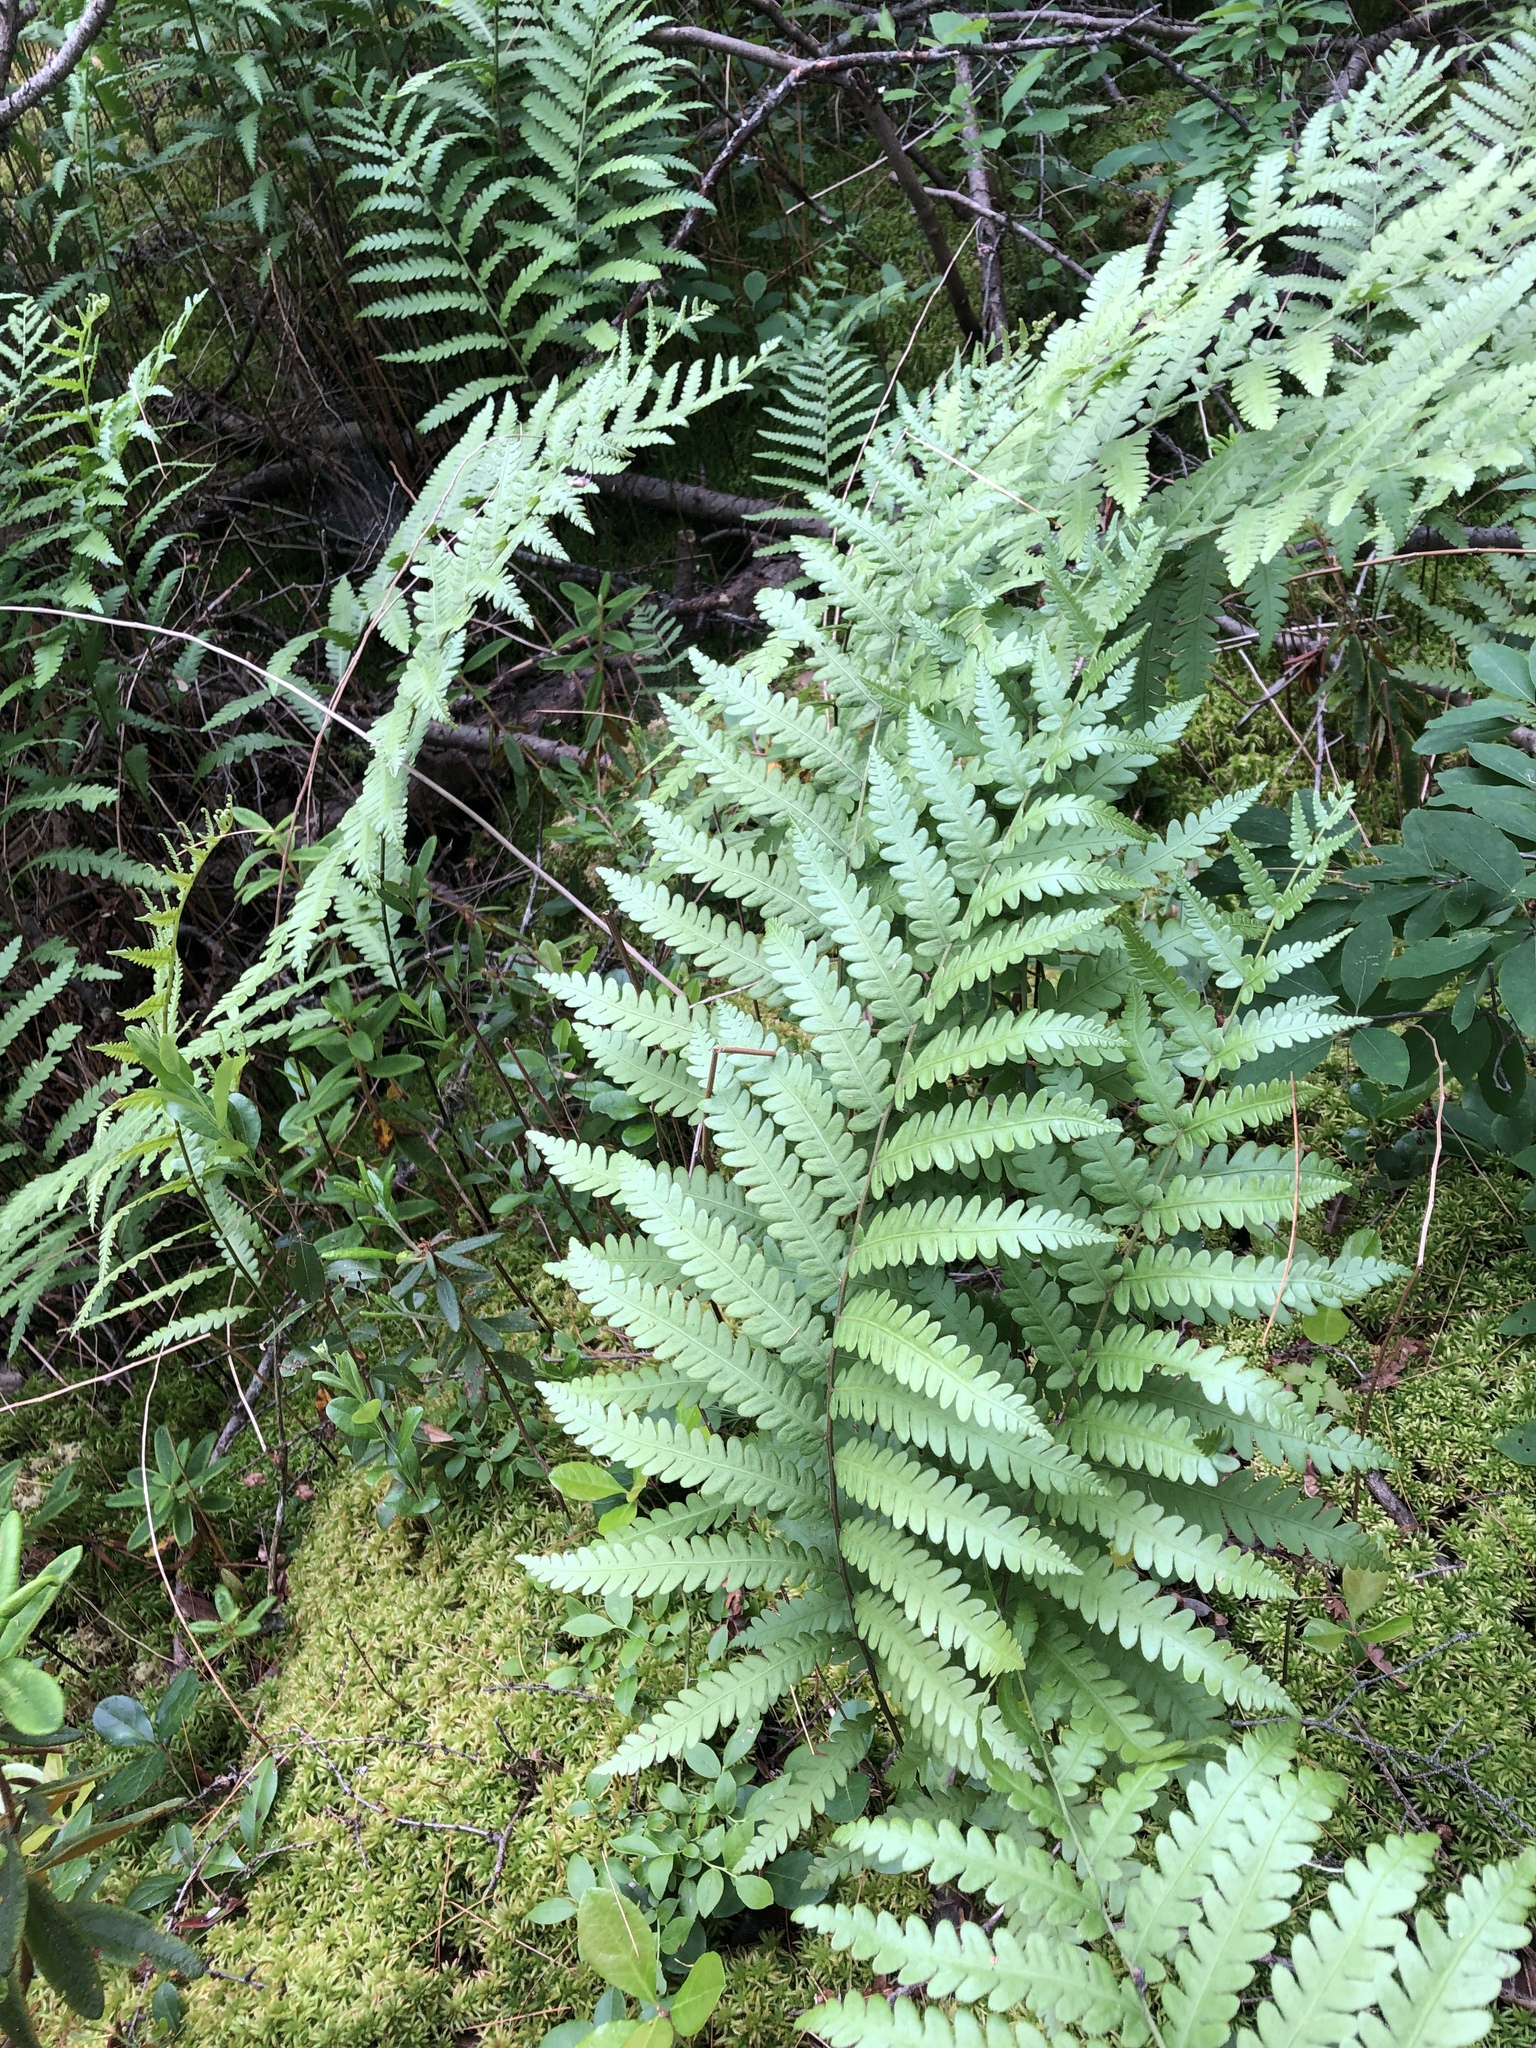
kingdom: Plantae
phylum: Tracheophyta
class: Polypodiopsida
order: Polypodiales
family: Blechnaceae
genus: Anchistea
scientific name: Anchistea virginica
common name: Virginia chain fern
